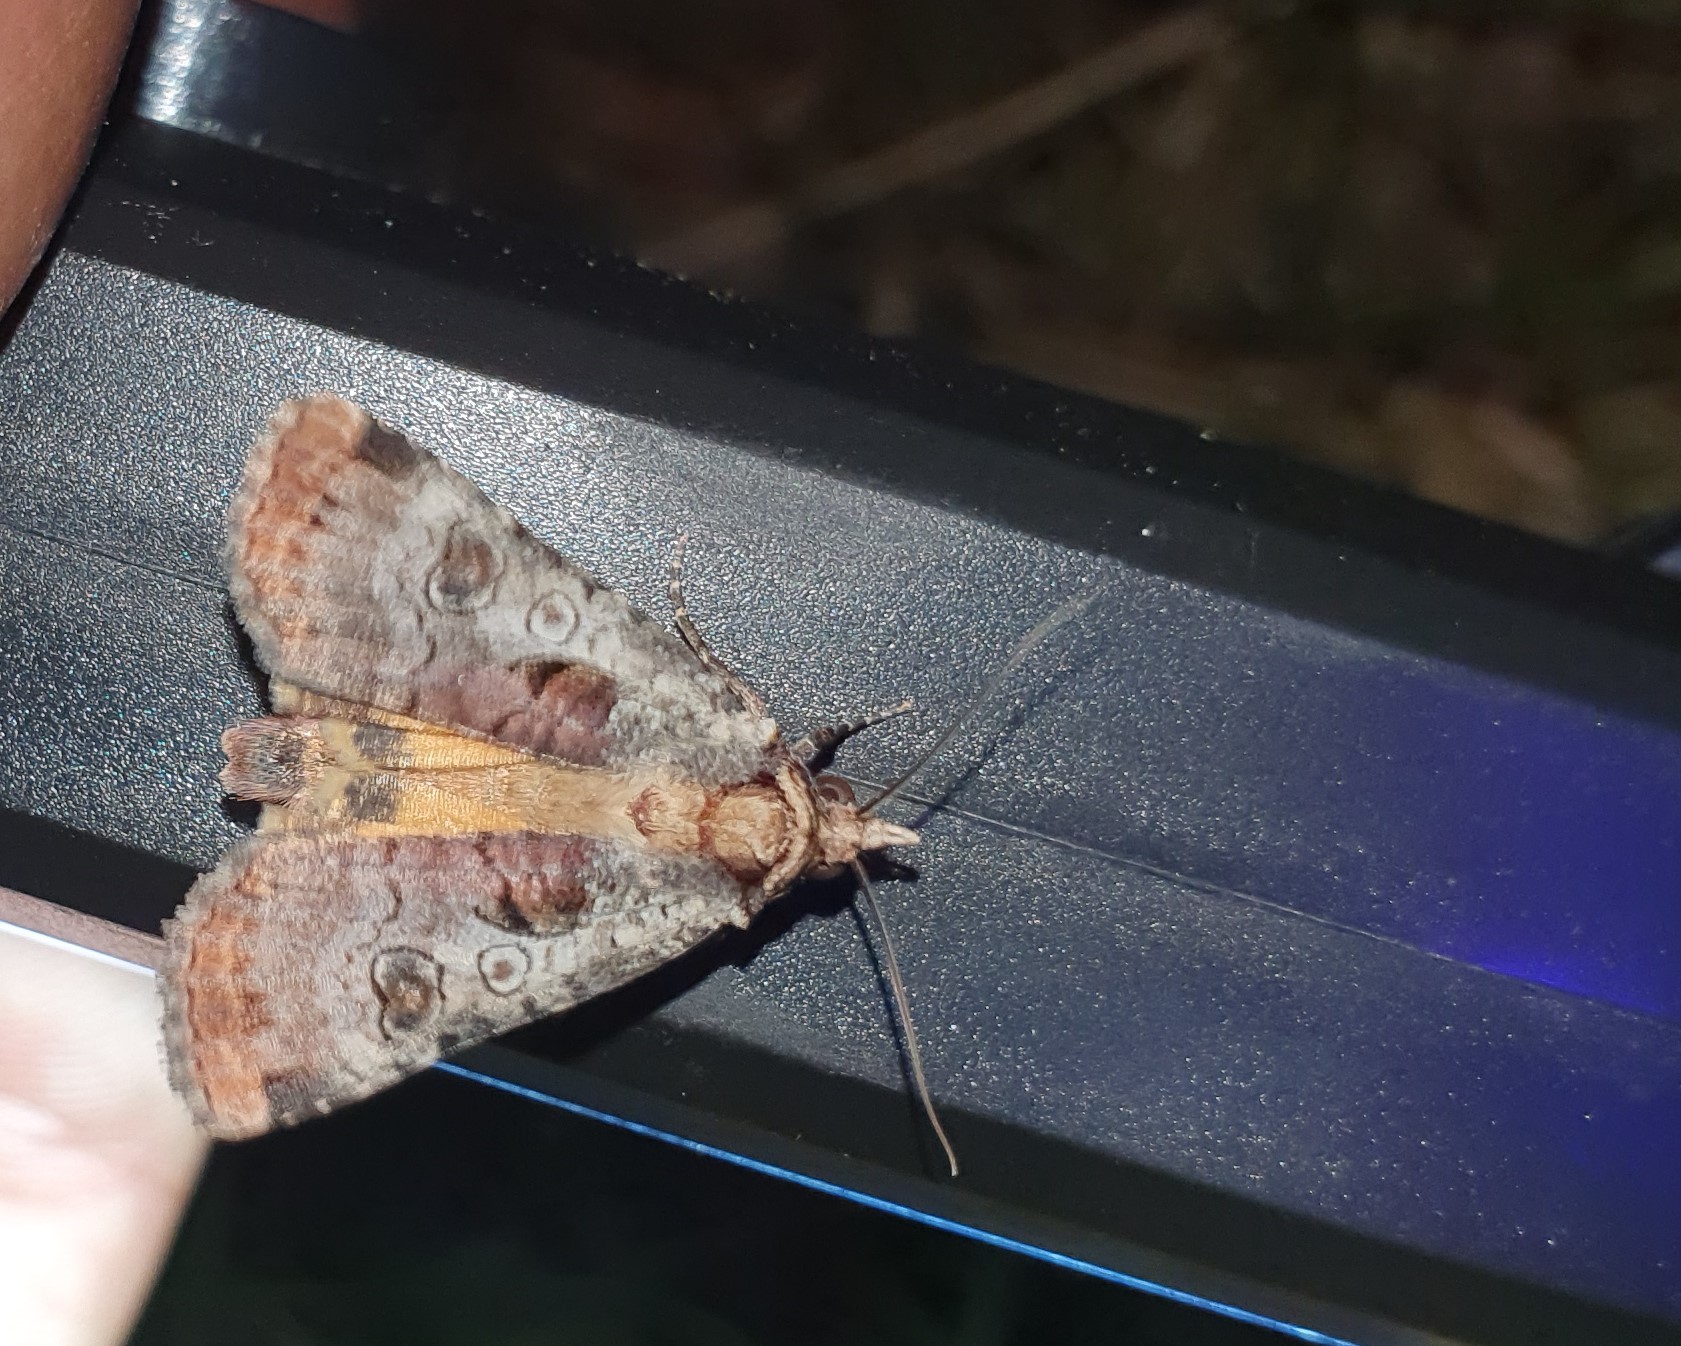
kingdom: Animalia
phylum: Arthropoda
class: Insecta
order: Lepidoptera
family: Noctuidae
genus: Epilecta
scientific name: Epilecta linogrisea
